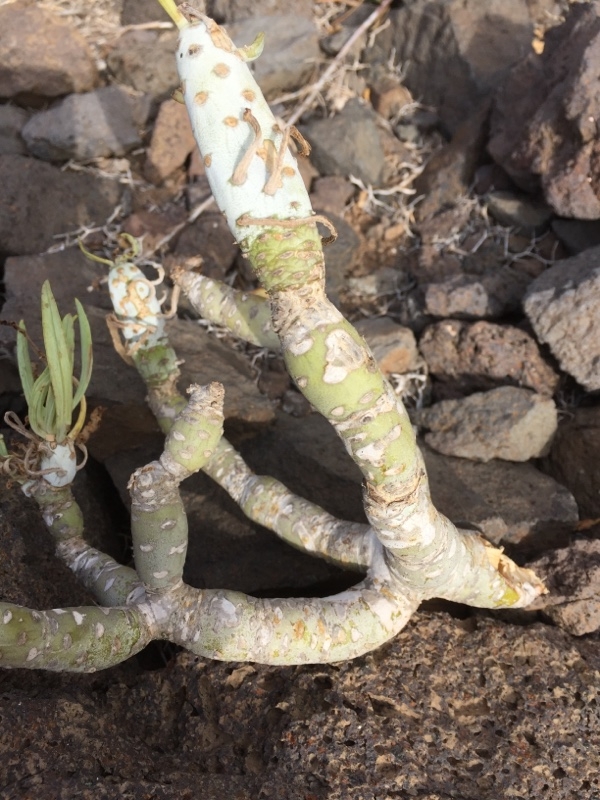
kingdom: Plantae
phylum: Tracheophyta
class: Magnoliopsida
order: Asterales
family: Asteraceae
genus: Kleinia
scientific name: Kleinia neriifolia
